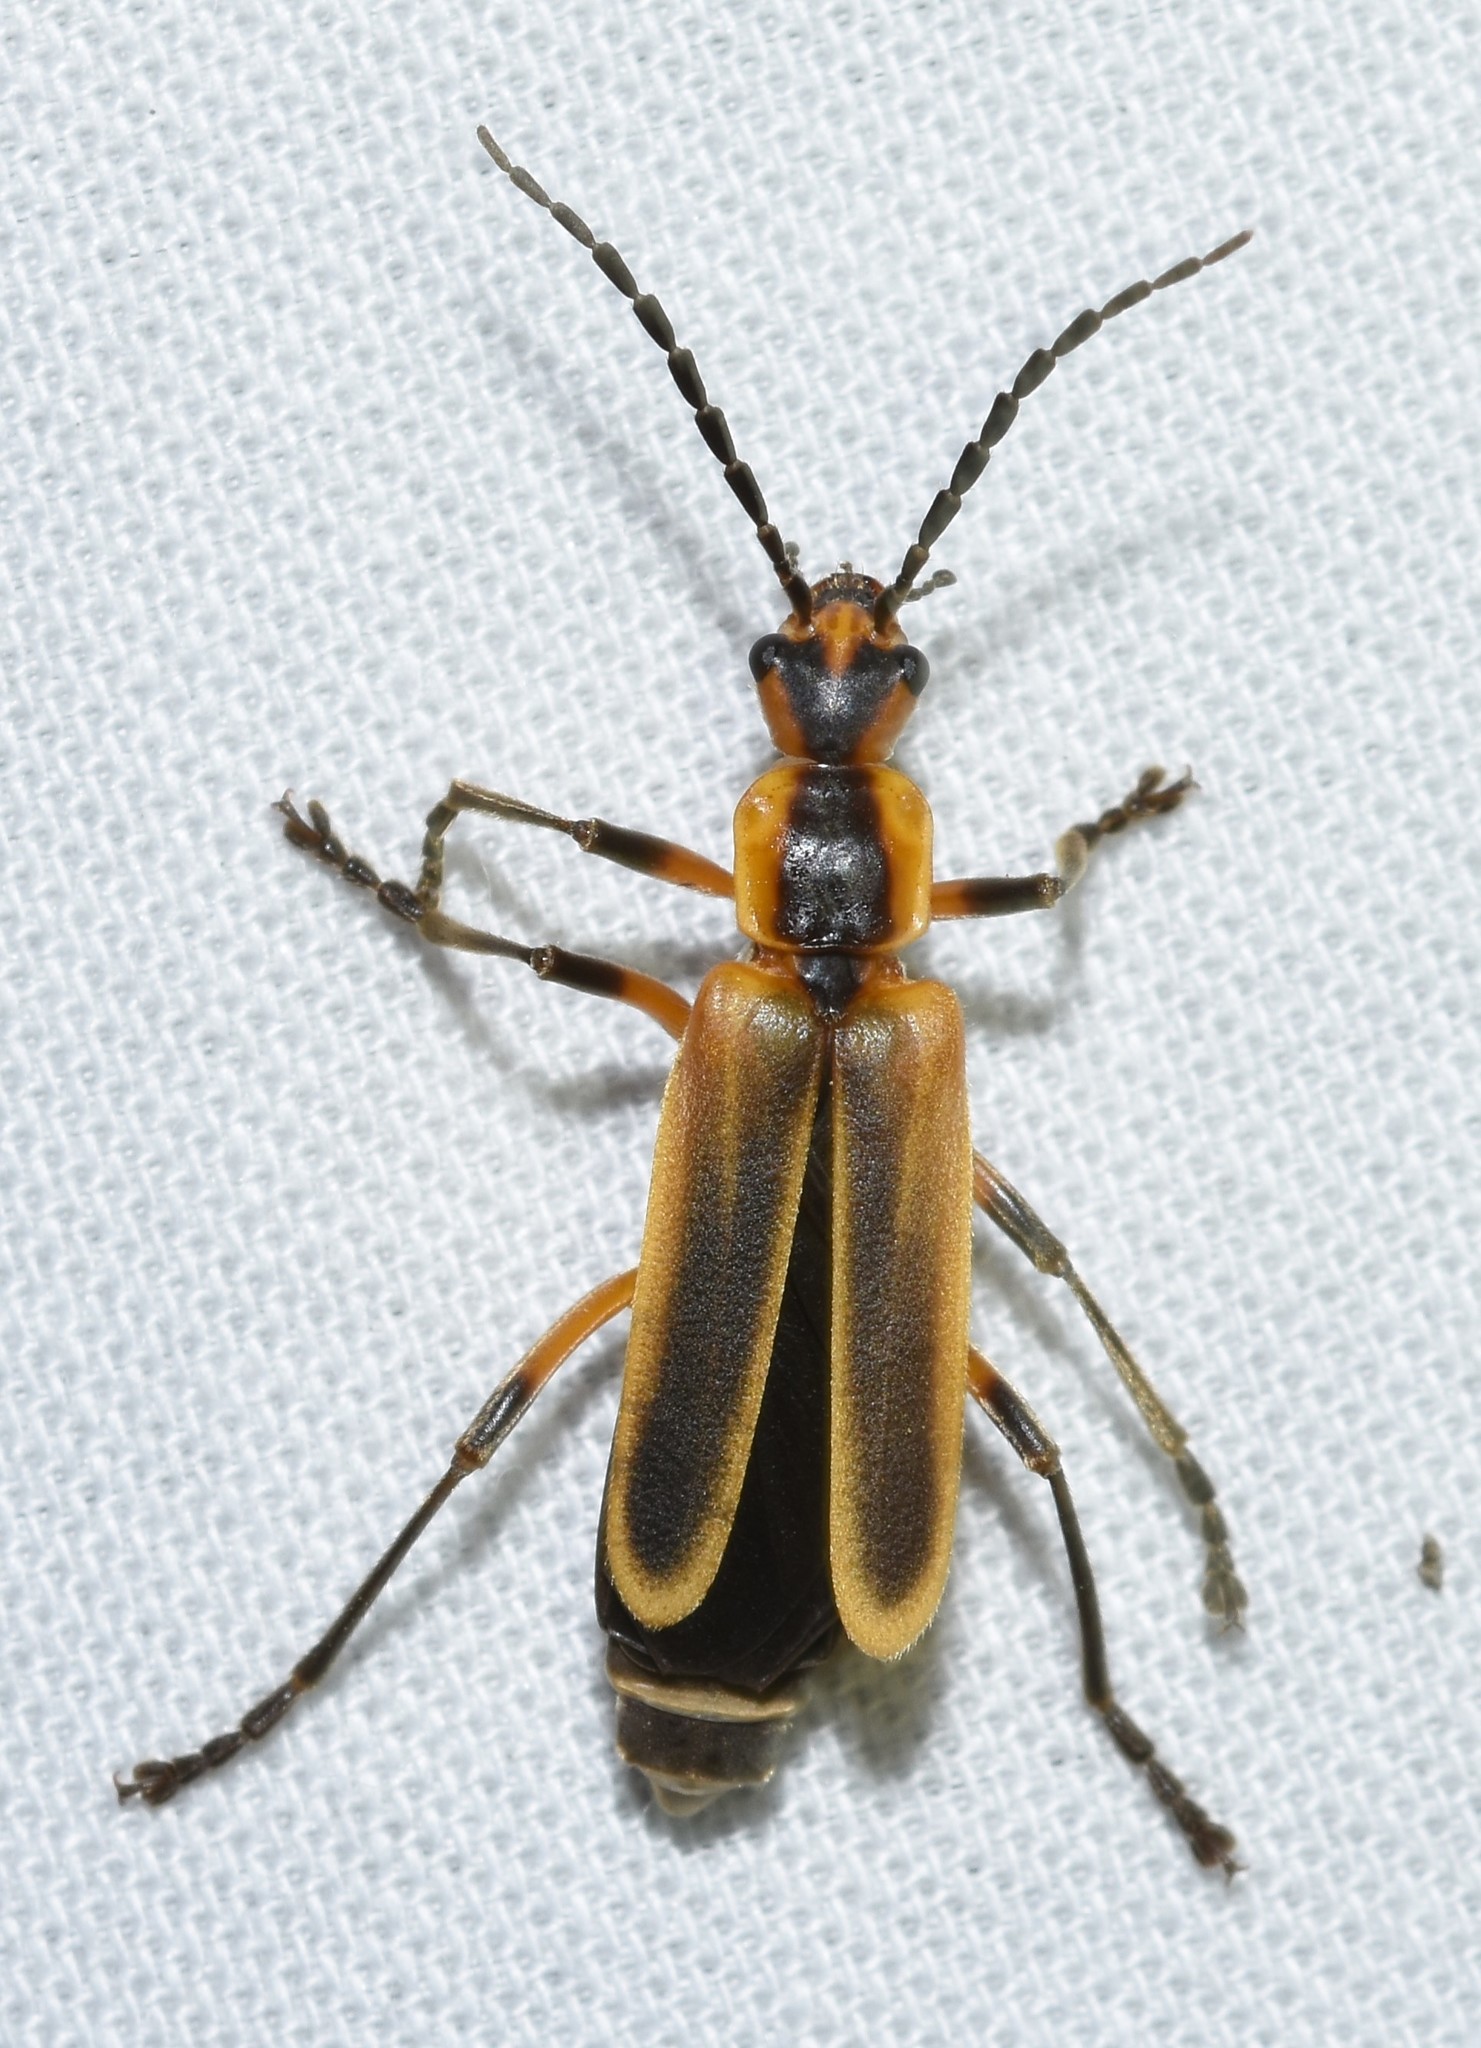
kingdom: Animalia
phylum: Arthropoda
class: Insecta
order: Coleoptera
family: Cantharidae
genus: Chauliognathus
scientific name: Chauliognathus marginatus
